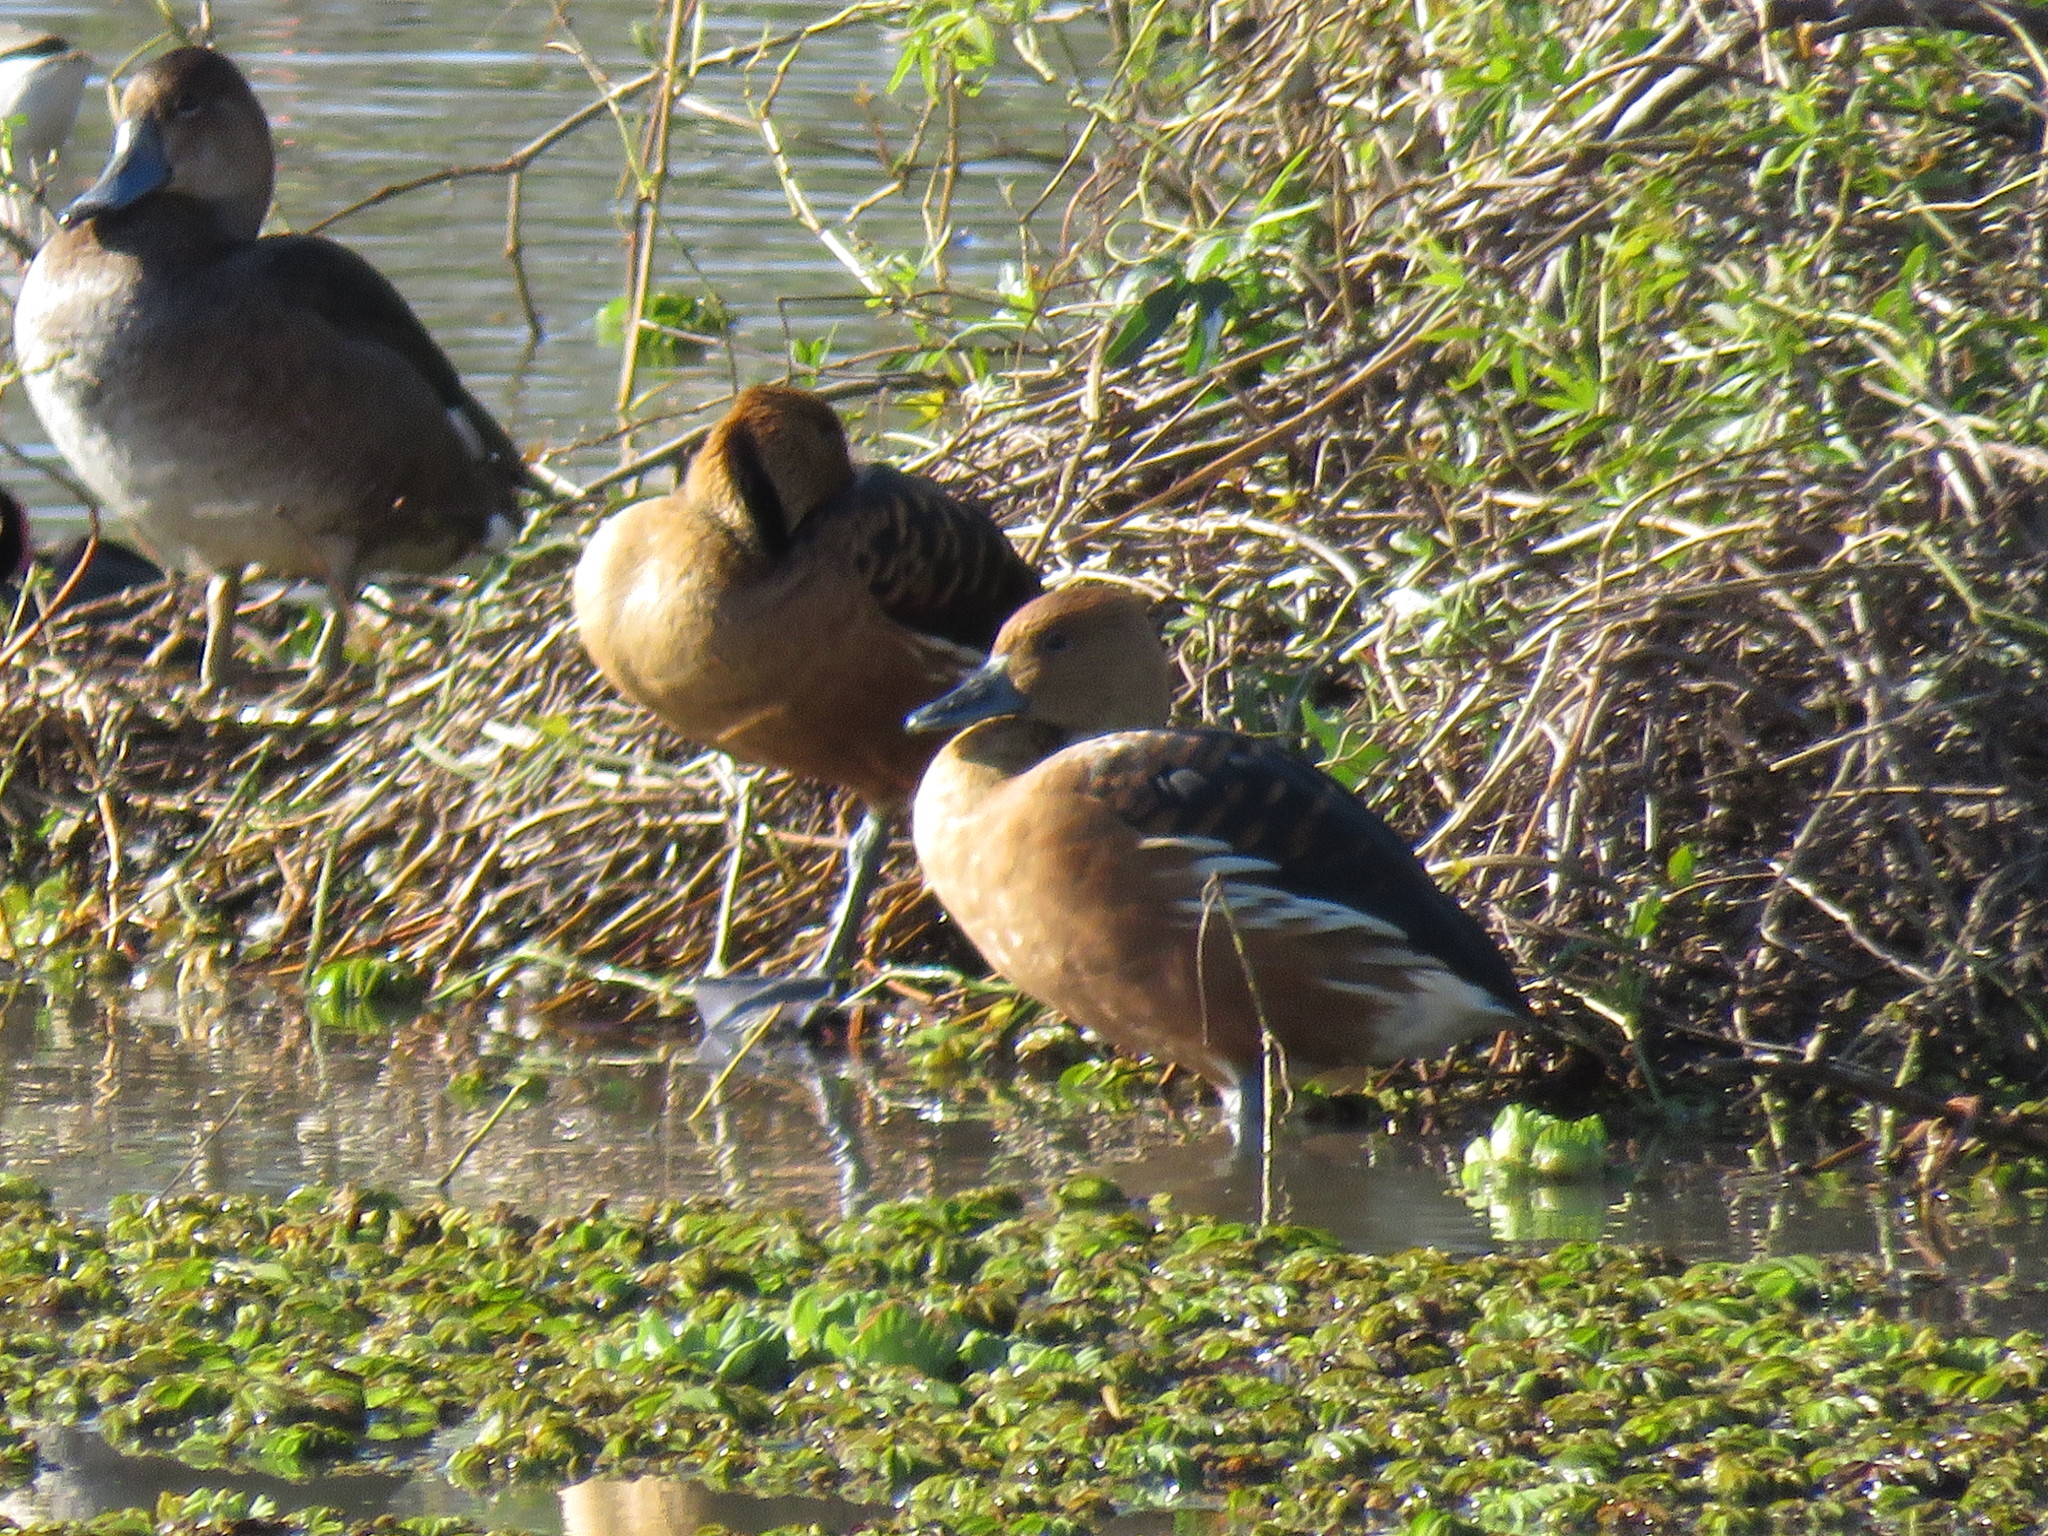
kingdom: Animalia
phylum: Chordata
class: Aves
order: Anseriformes
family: Anatidae
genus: Dendrocygna
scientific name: Dendrocygna bicolor
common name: Fulvous whistling duck
